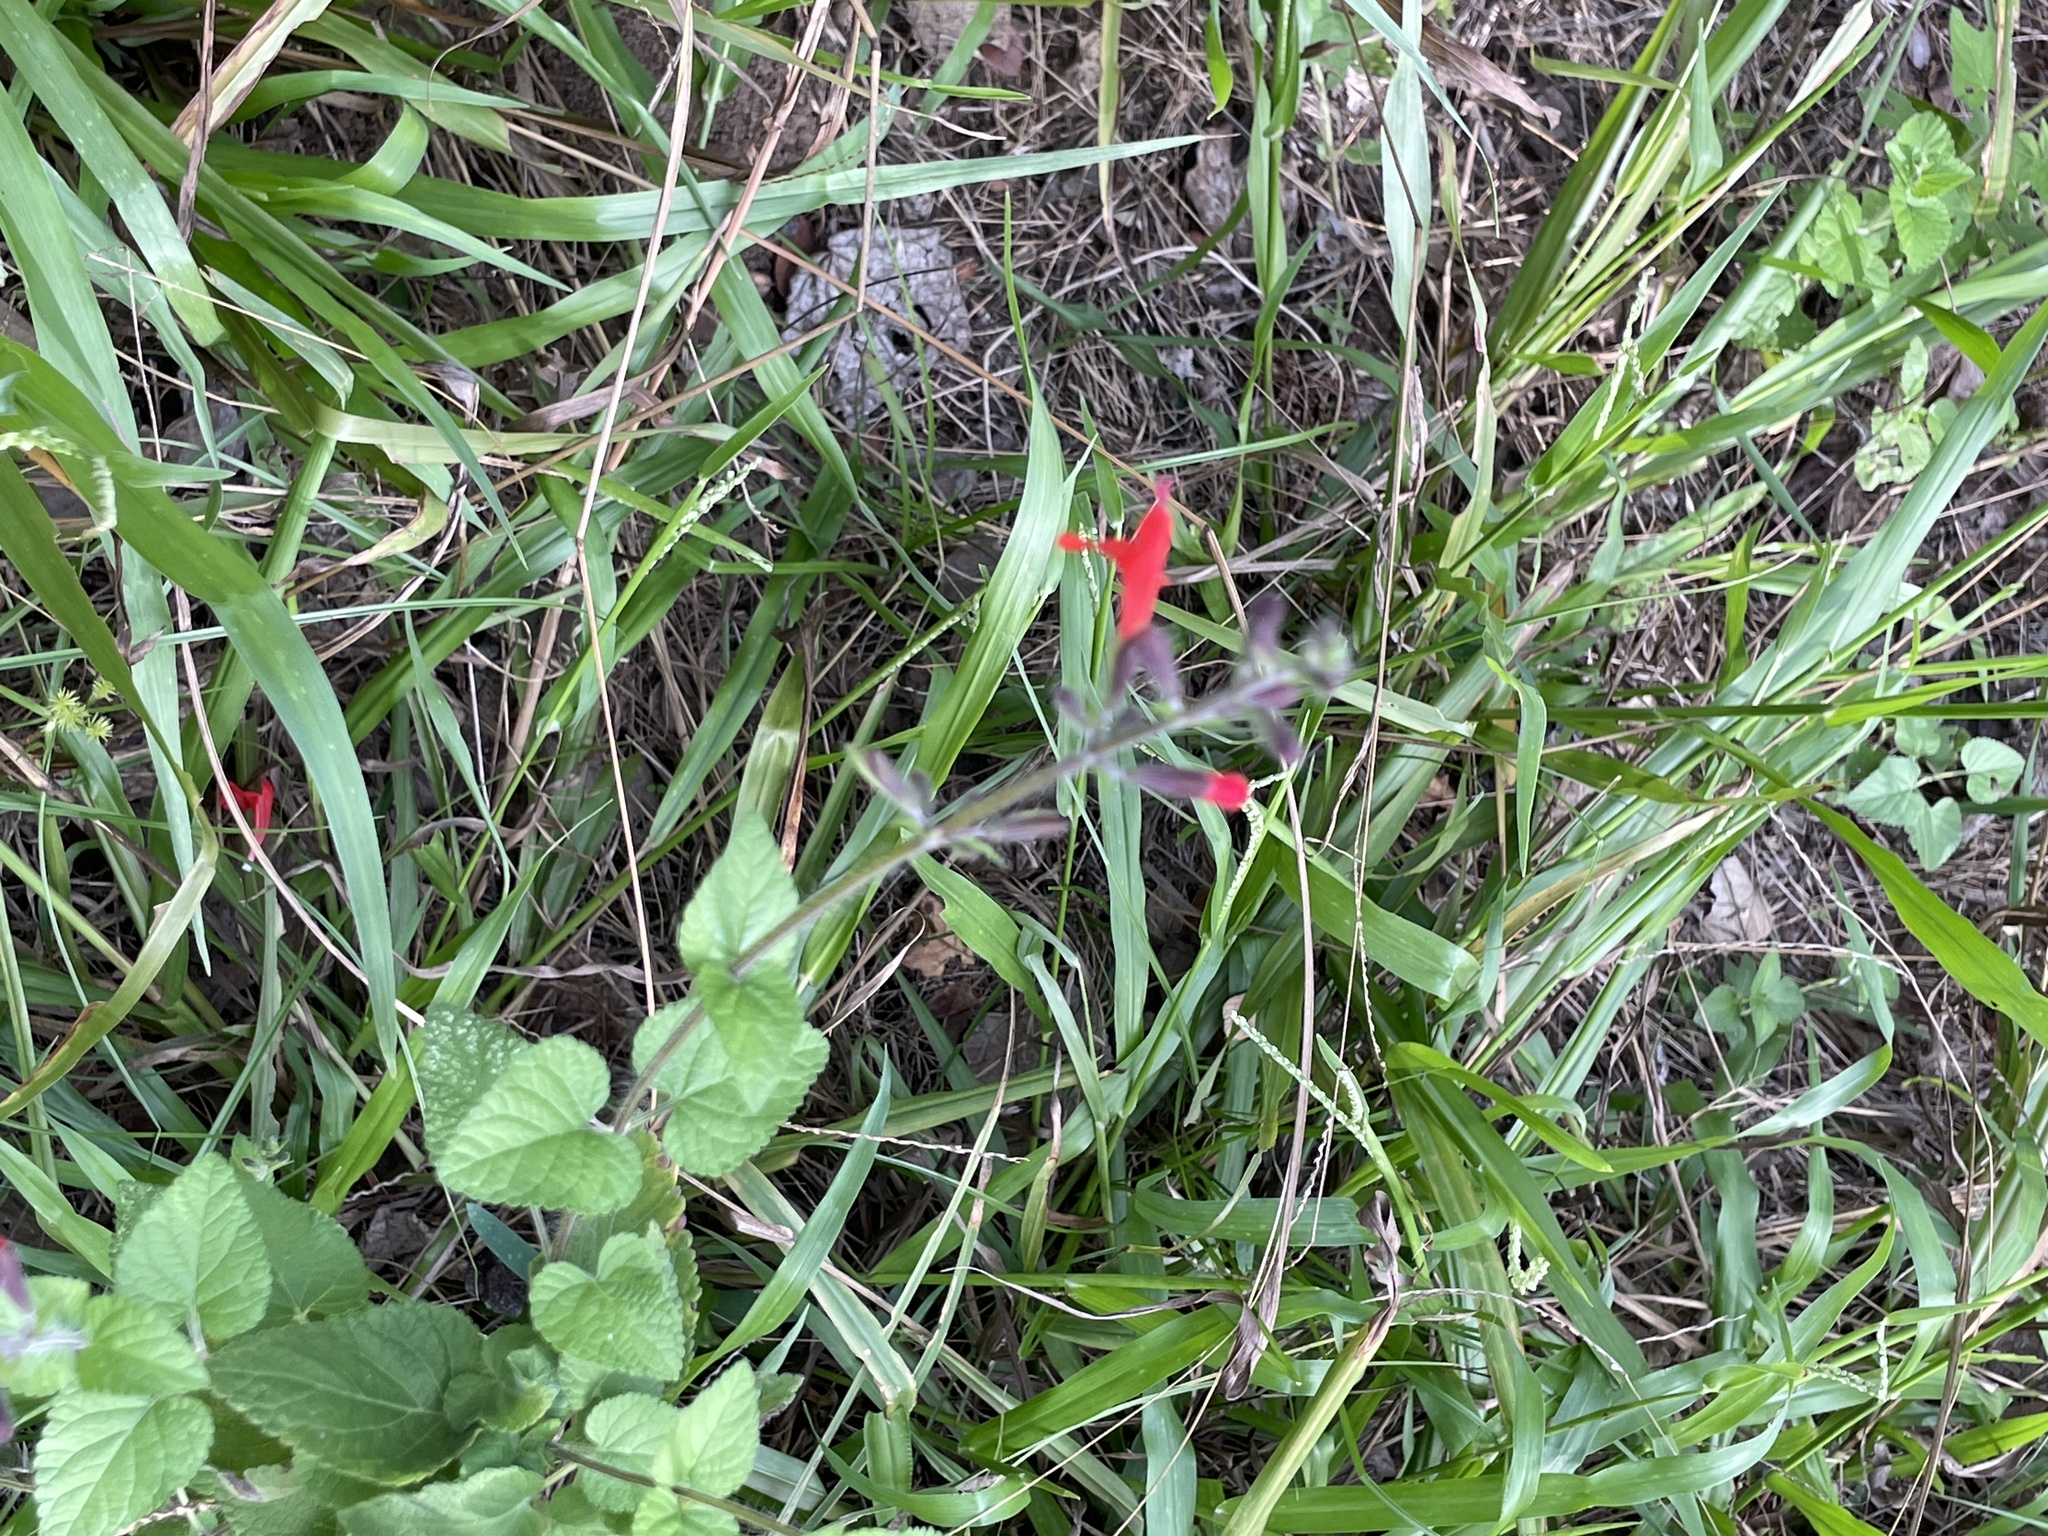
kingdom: Plantae
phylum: Tracheophyta
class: Magnoliopsida
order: Lamiales
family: Lamiaceae
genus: Salvia
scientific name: Salvia coccinea
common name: Blood sage
